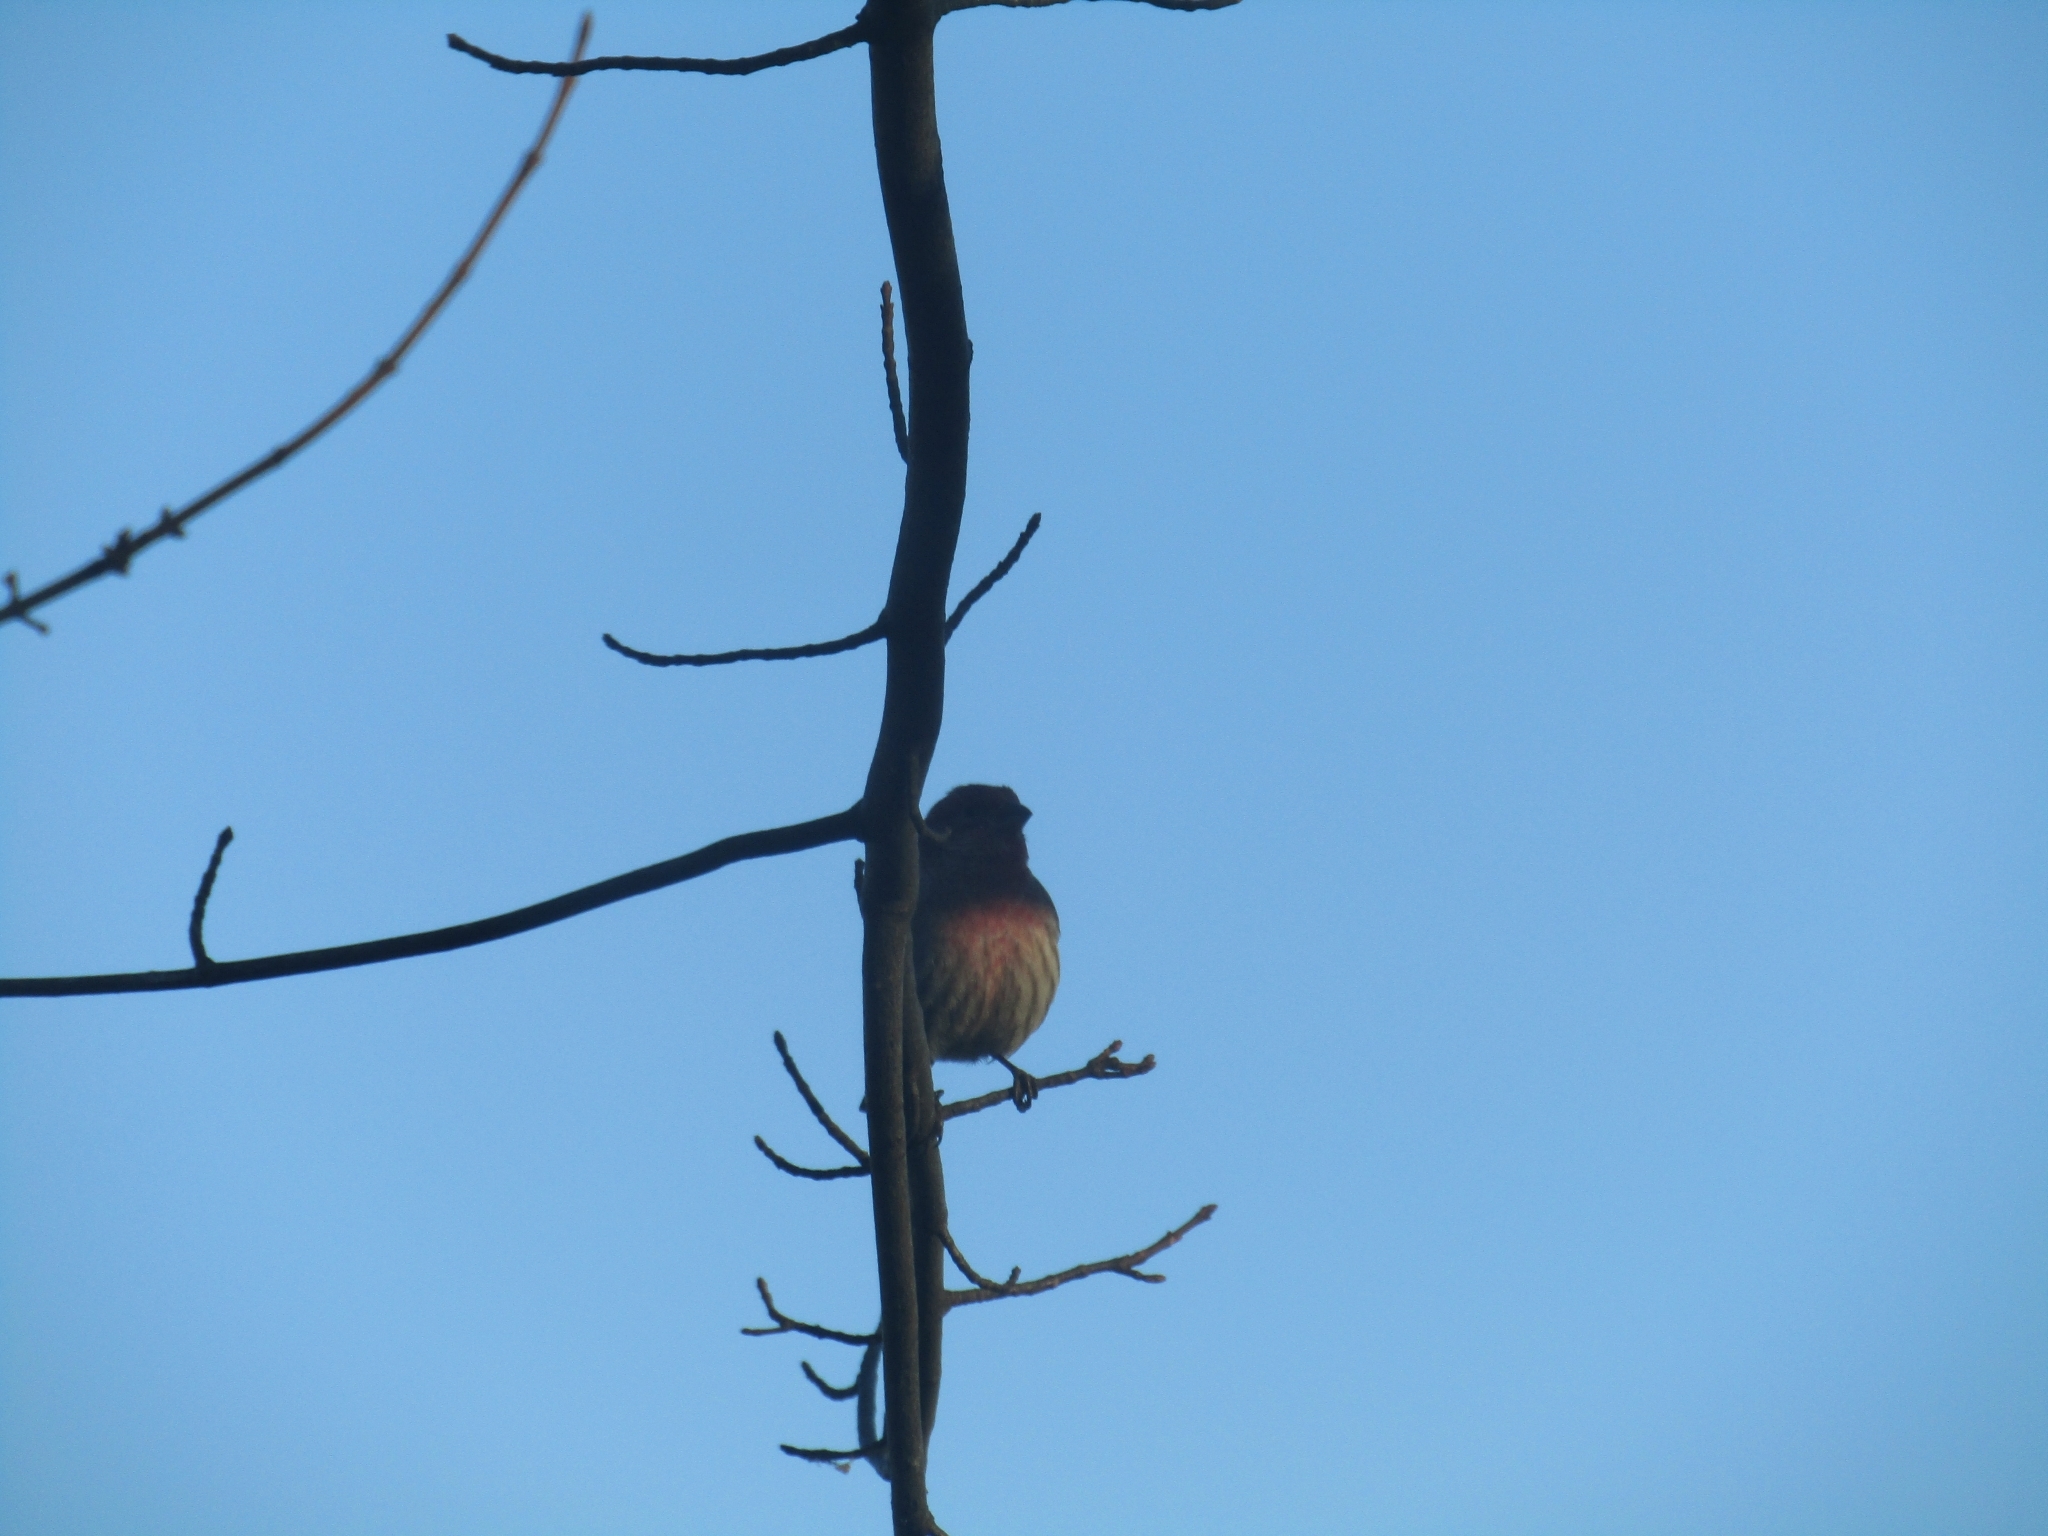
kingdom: Animalia
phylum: Chordata
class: Aves
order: Passeriformes
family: Fringillidae
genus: Haemorhous
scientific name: Haemorhous mexicanus
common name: House finch
